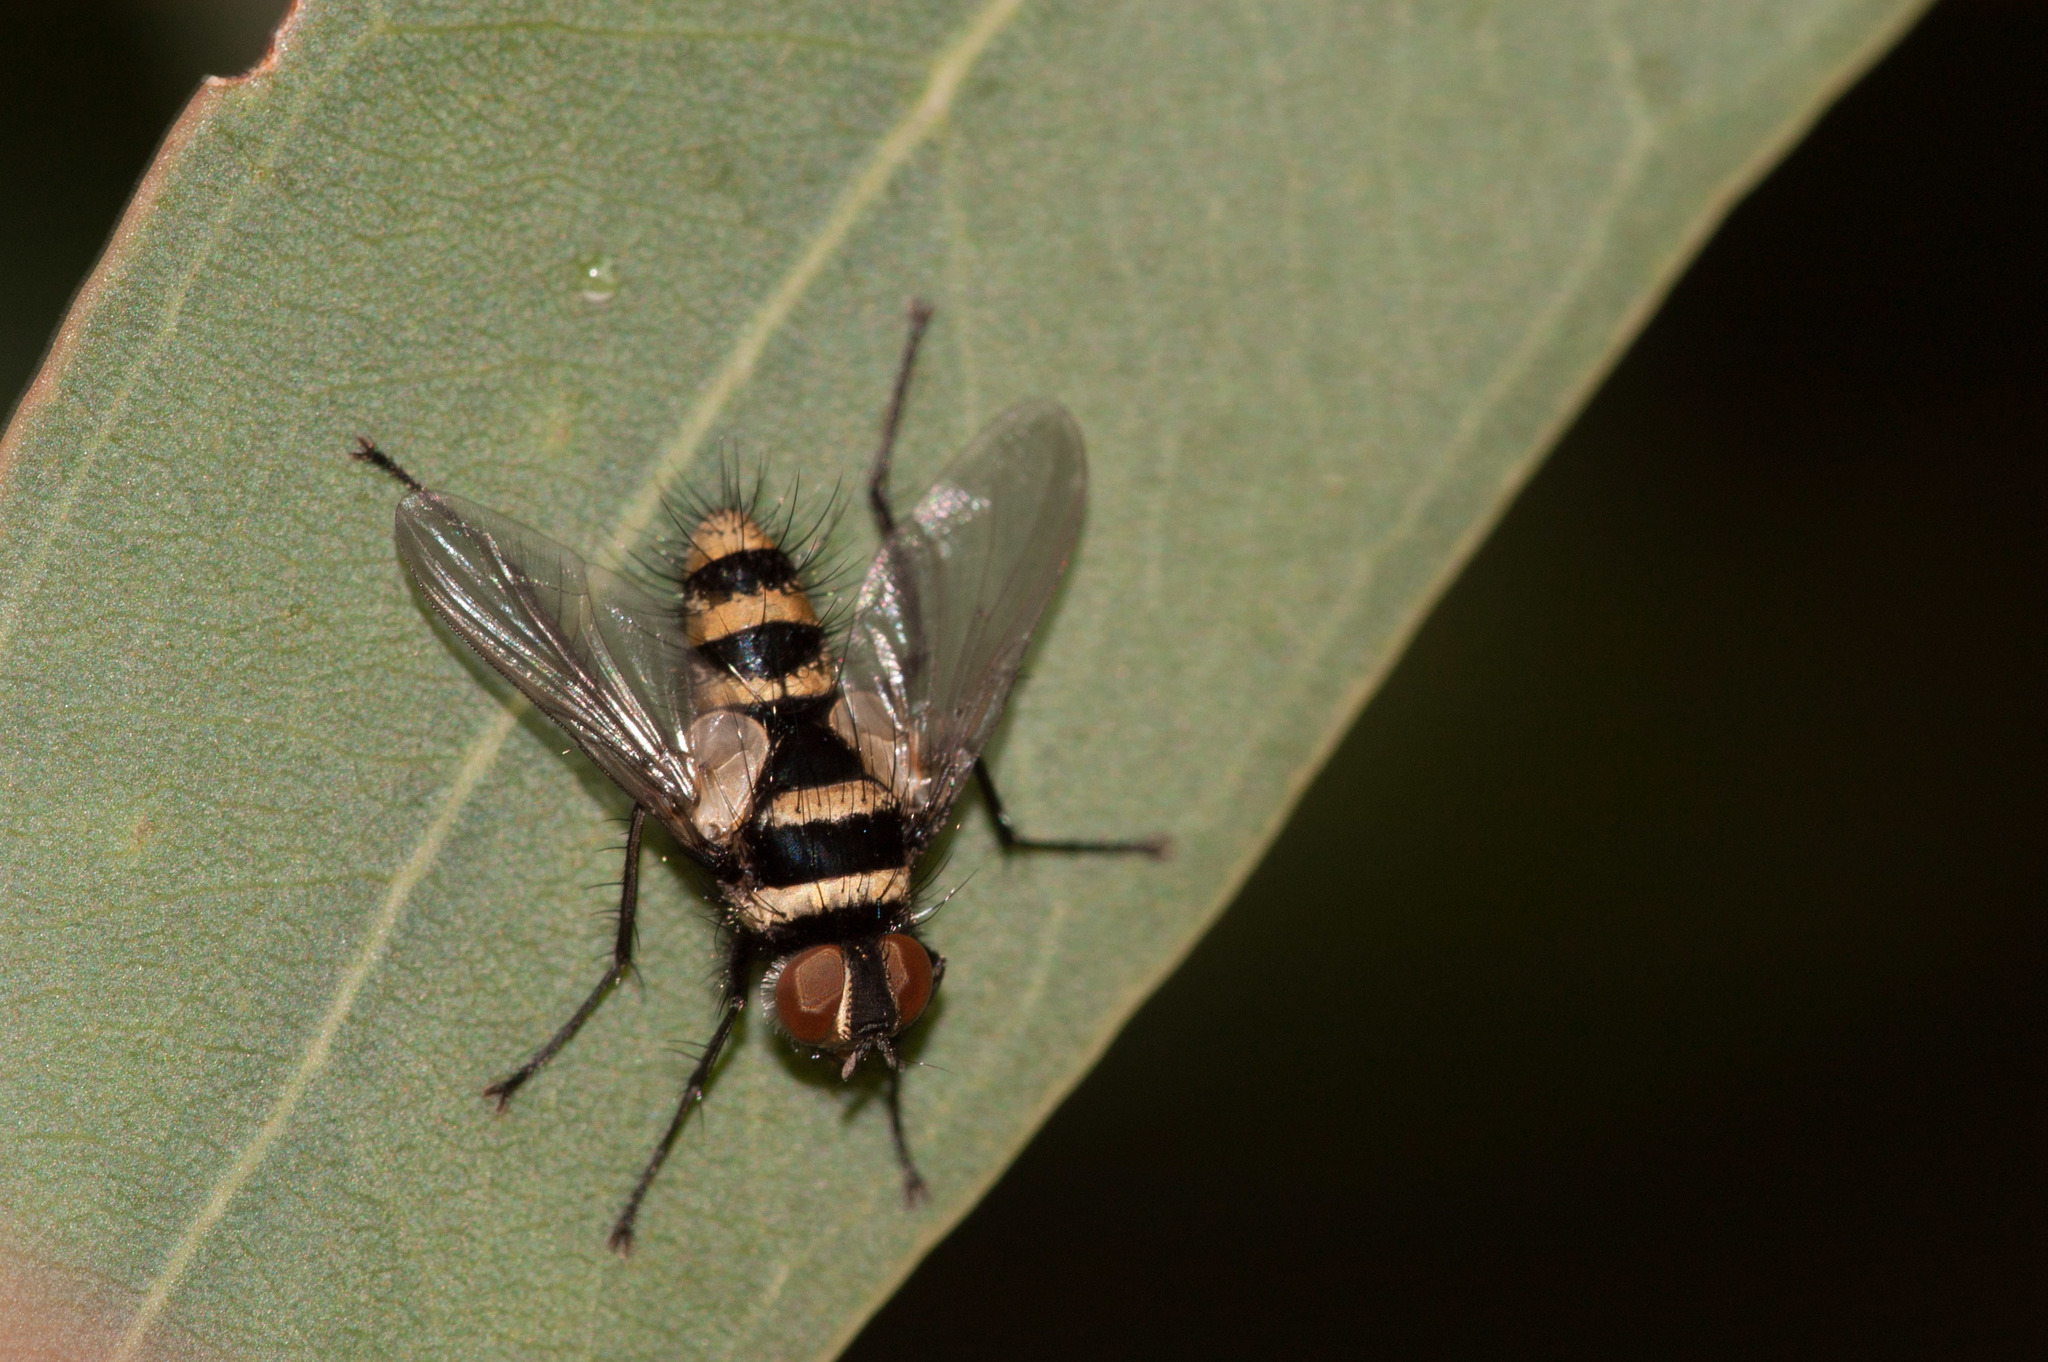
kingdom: Animalia
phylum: Arthropoda
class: Insecta
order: Diptera
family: Tachinidae
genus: Trigonospila
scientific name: Trigonospila
